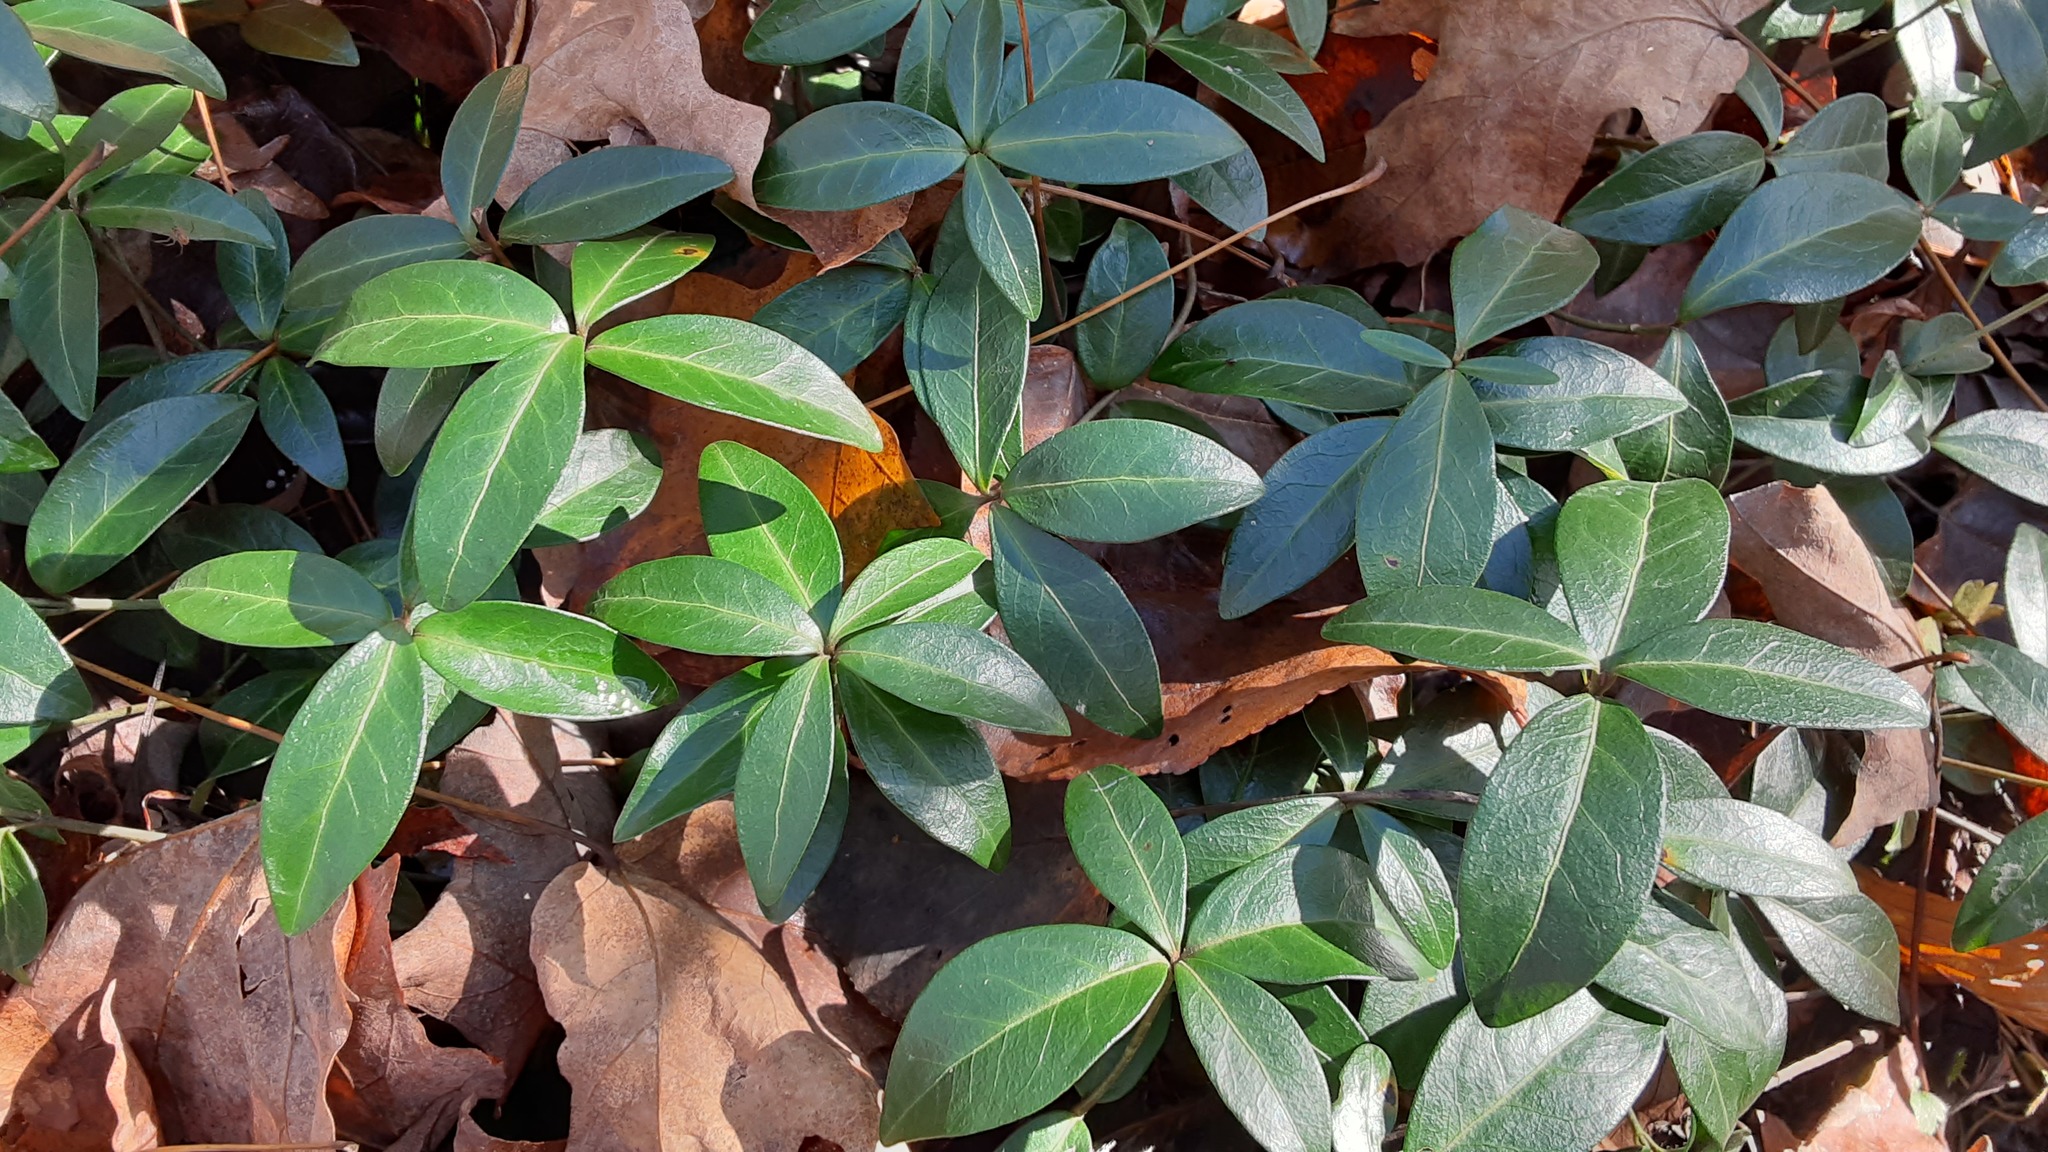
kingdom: Plantae
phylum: Tracheophyta
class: Magnoliopsida
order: Gentianales
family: Apocynaceae
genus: Vinca
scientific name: Vinca minor
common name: Lesser periwinkle
